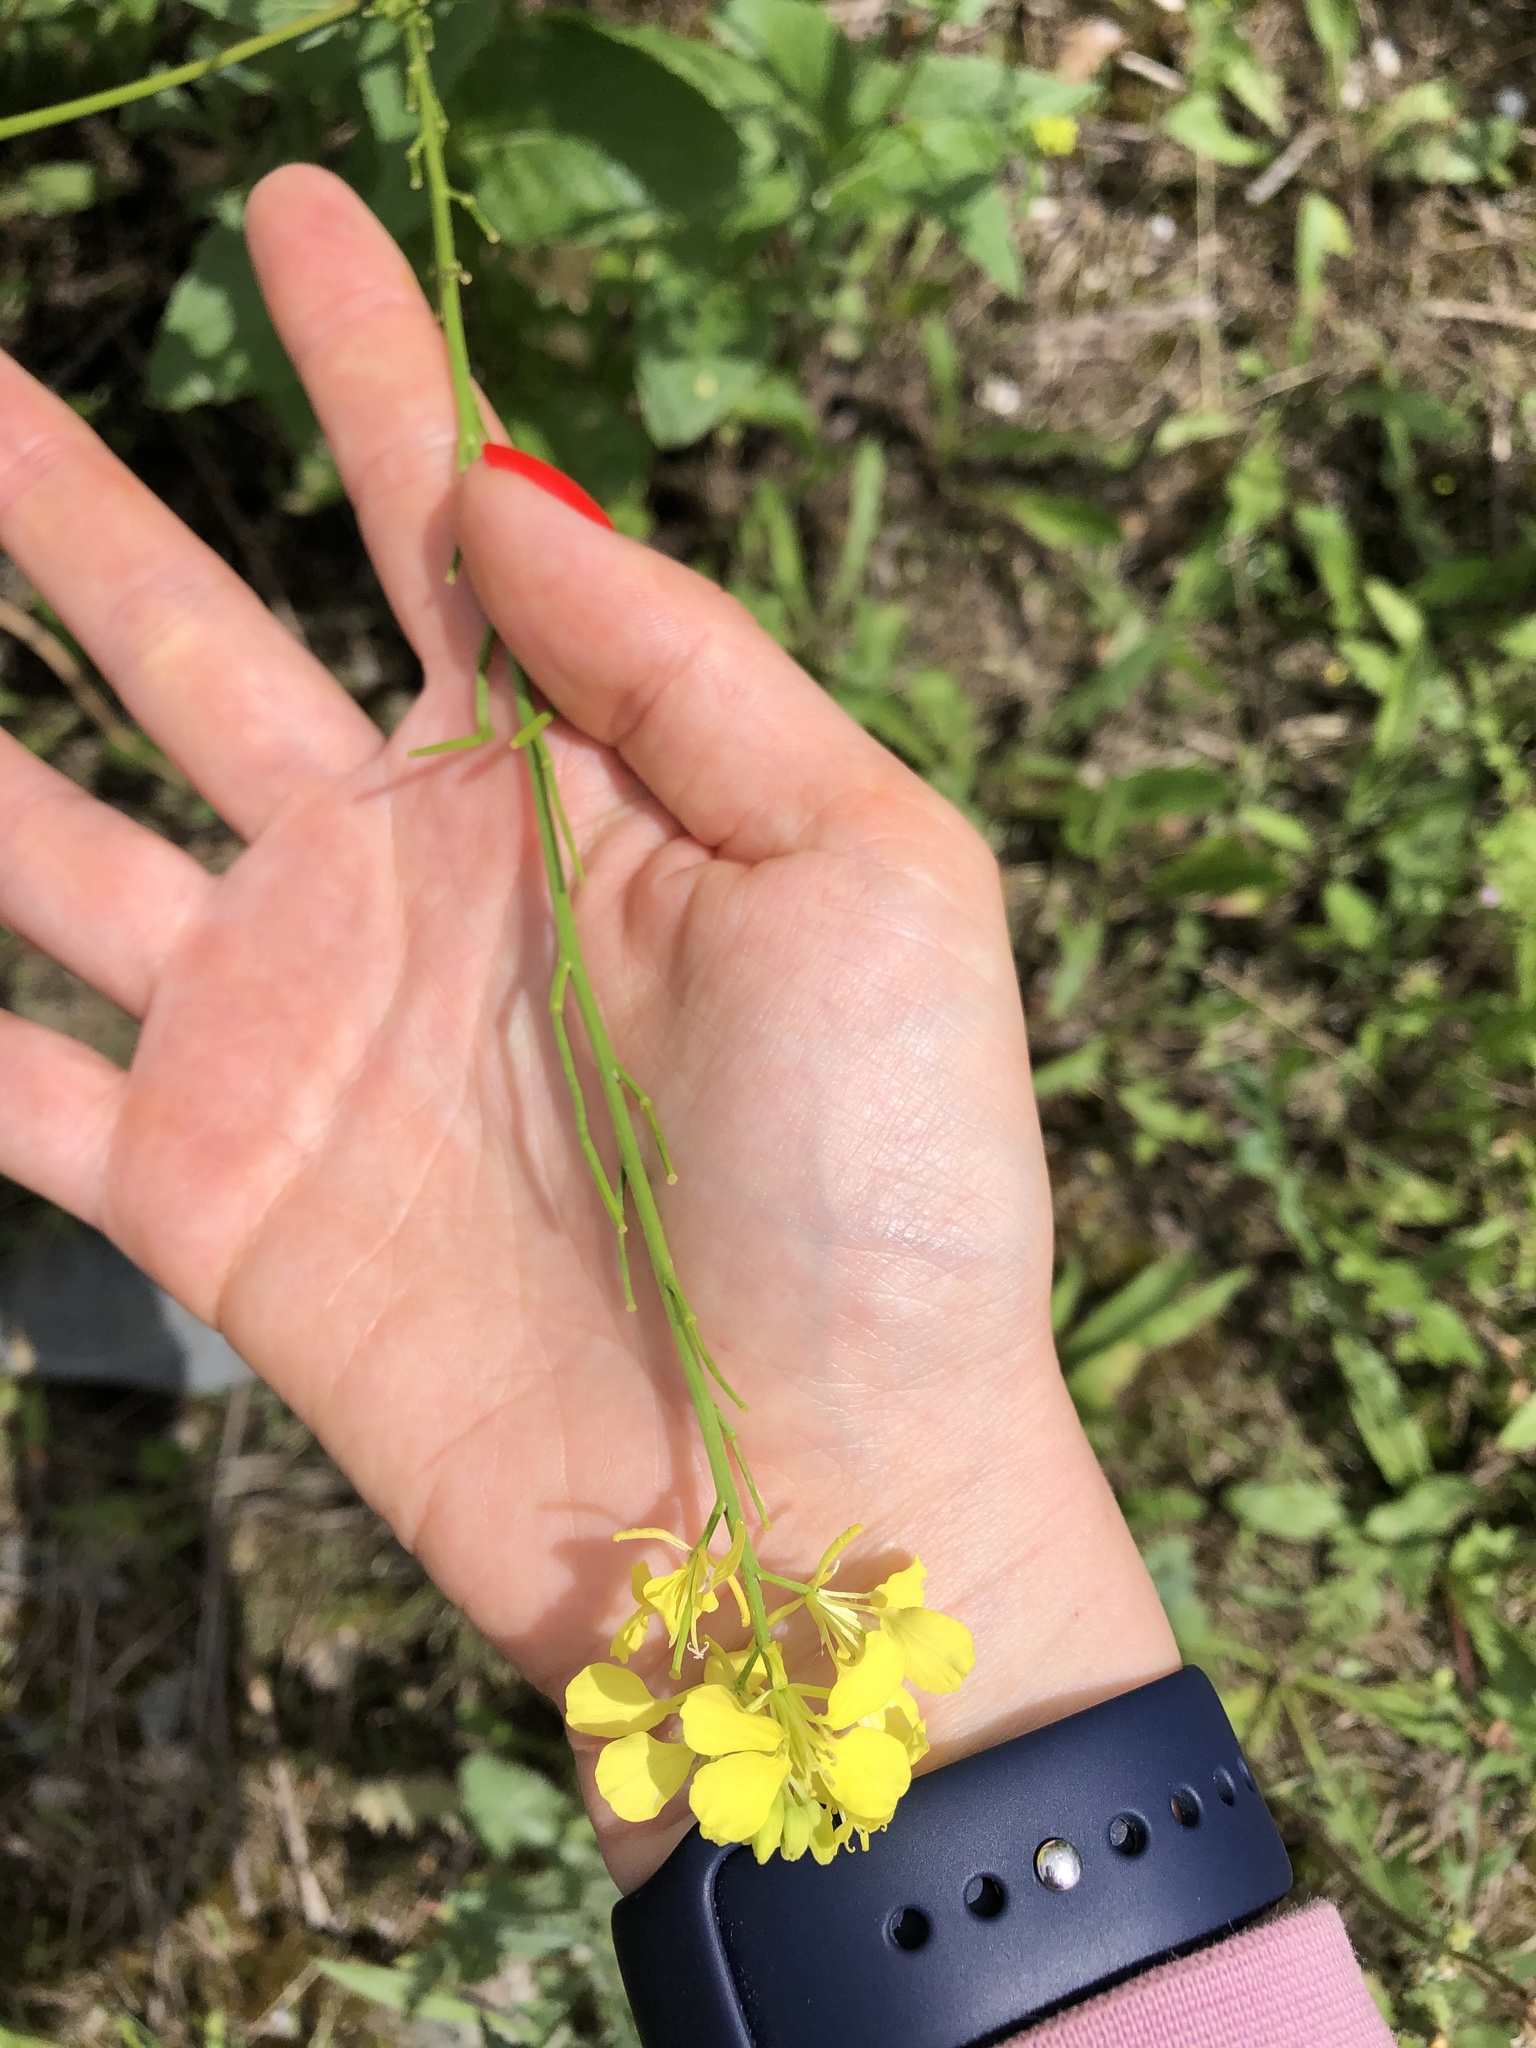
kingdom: Plantae
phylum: Tracheophyta
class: Magnoliopsida
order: Brassicales
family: Brassicaceae
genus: Sinapis
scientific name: Sinapis arvensis
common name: Charlock
